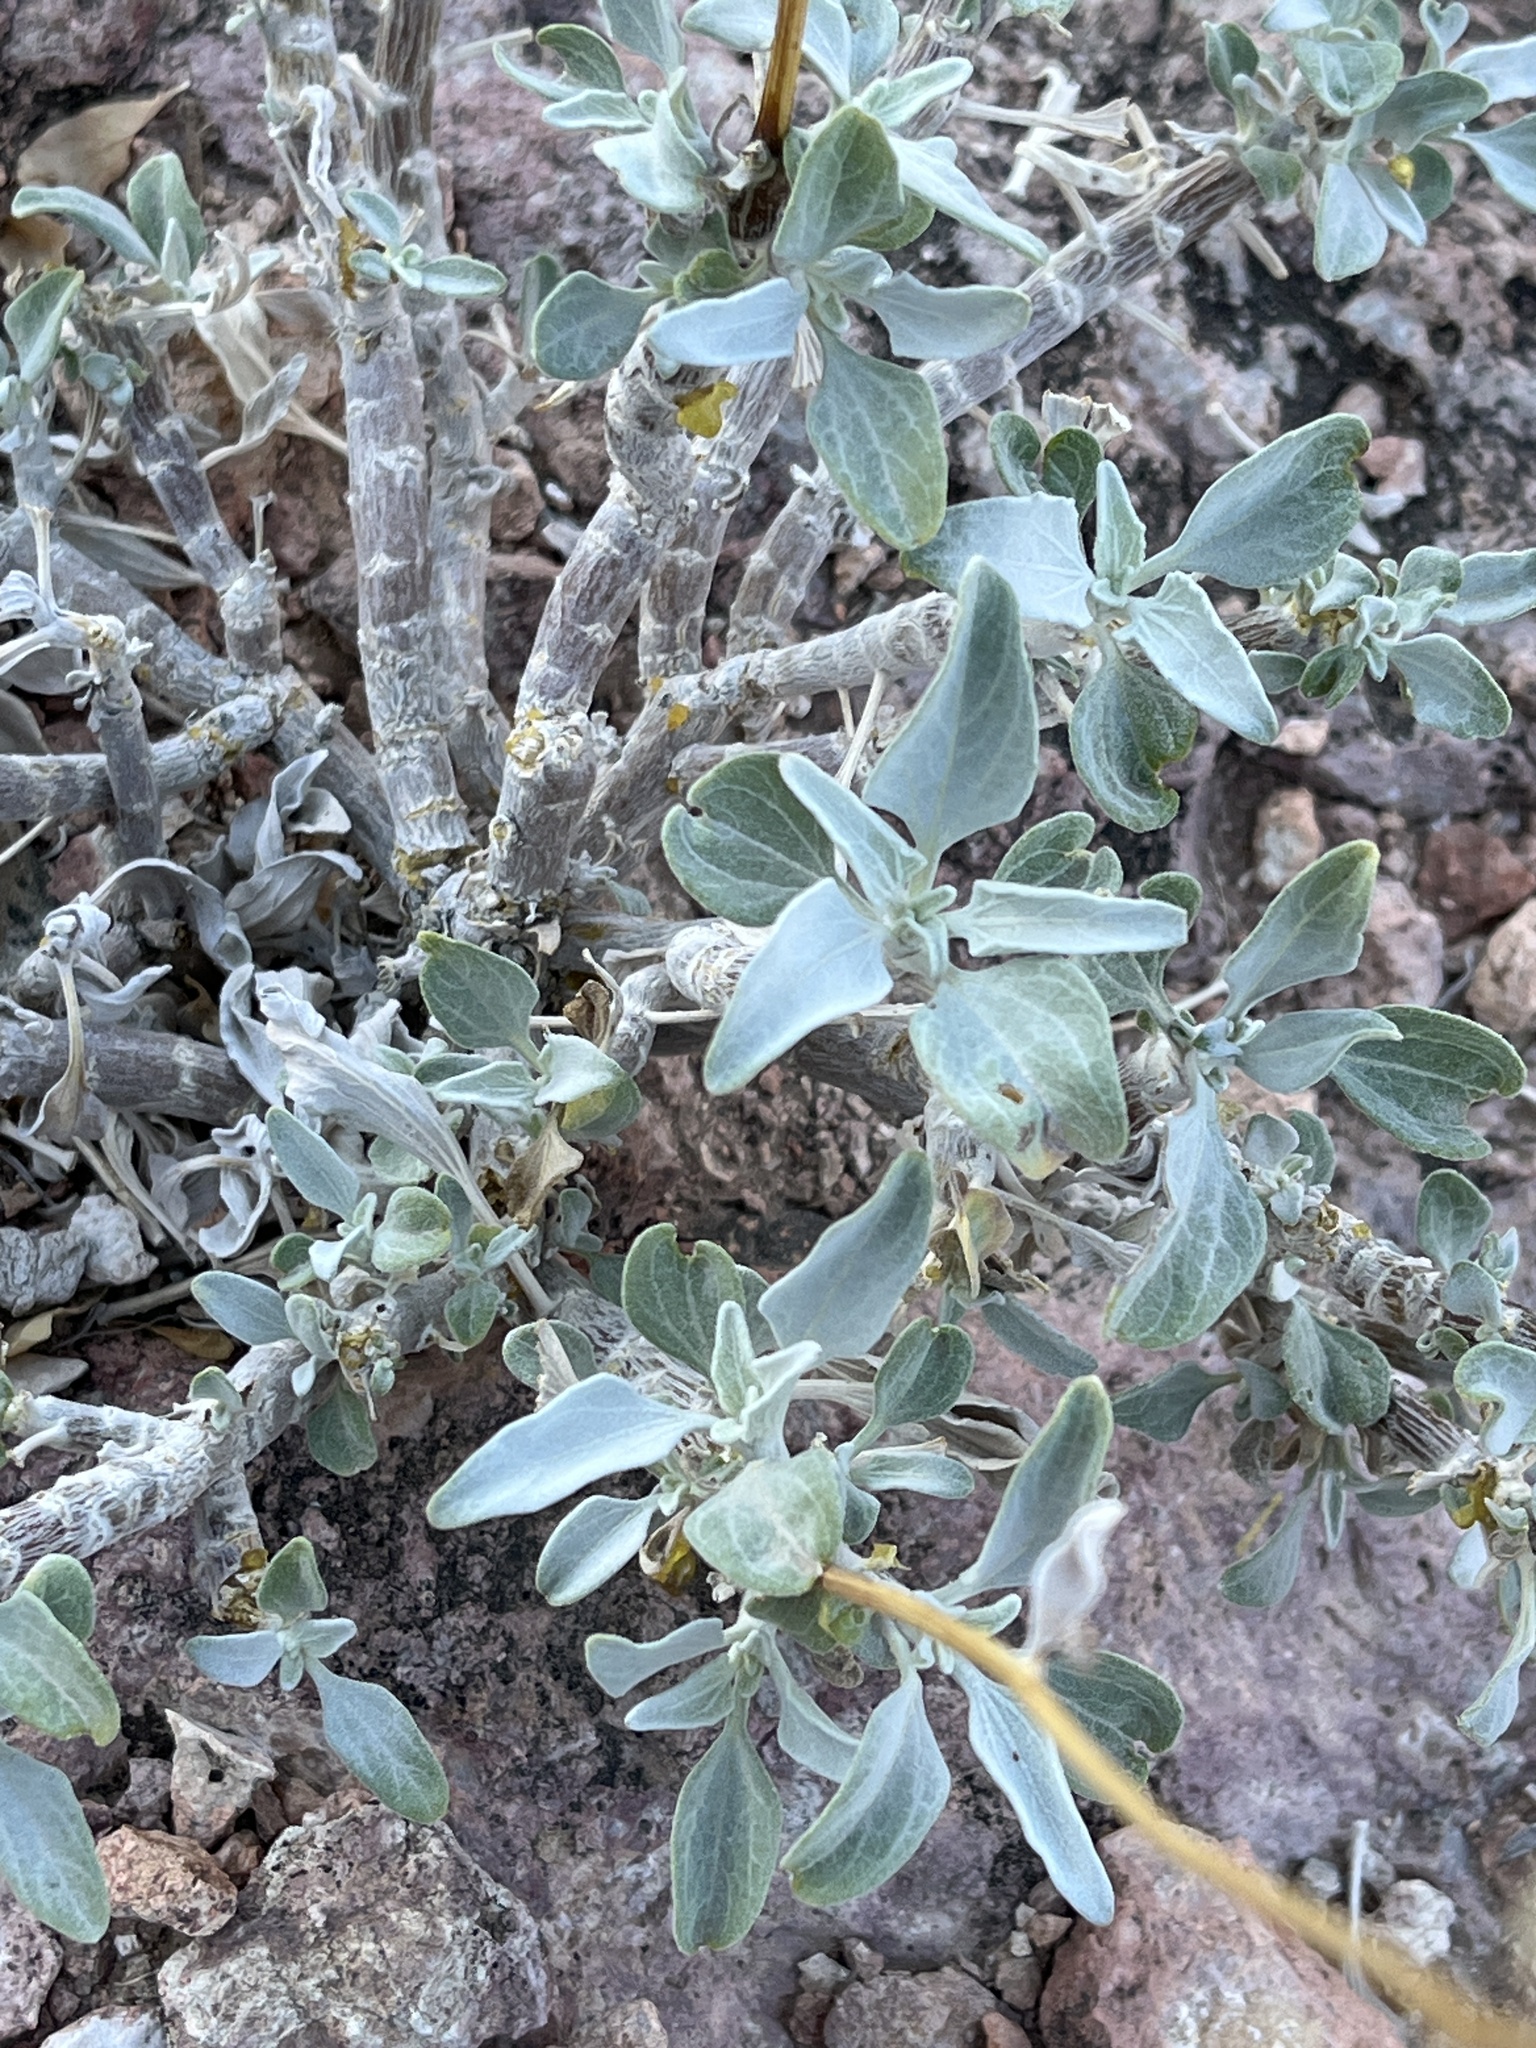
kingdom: Plantae
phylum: Tracheophyta
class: Magnoliopsida
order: Asterales
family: Asteraceae
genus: Encelia
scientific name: Encelia farinosa
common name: Brittlebush
